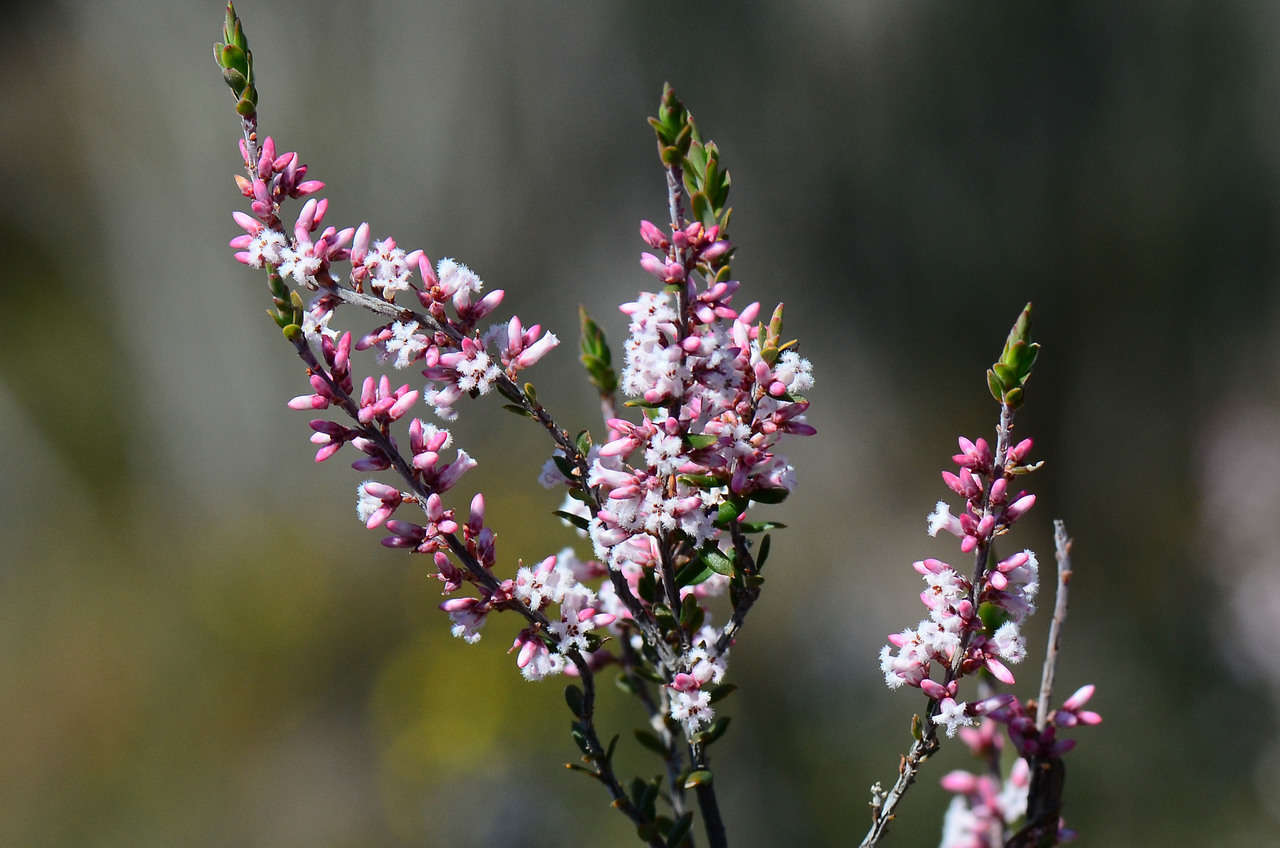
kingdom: Plantae
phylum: Tracheophyta
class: Magnoliopsida
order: Ericales
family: Ericaceae
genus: Styphelia
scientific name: Styphelia ericoides
